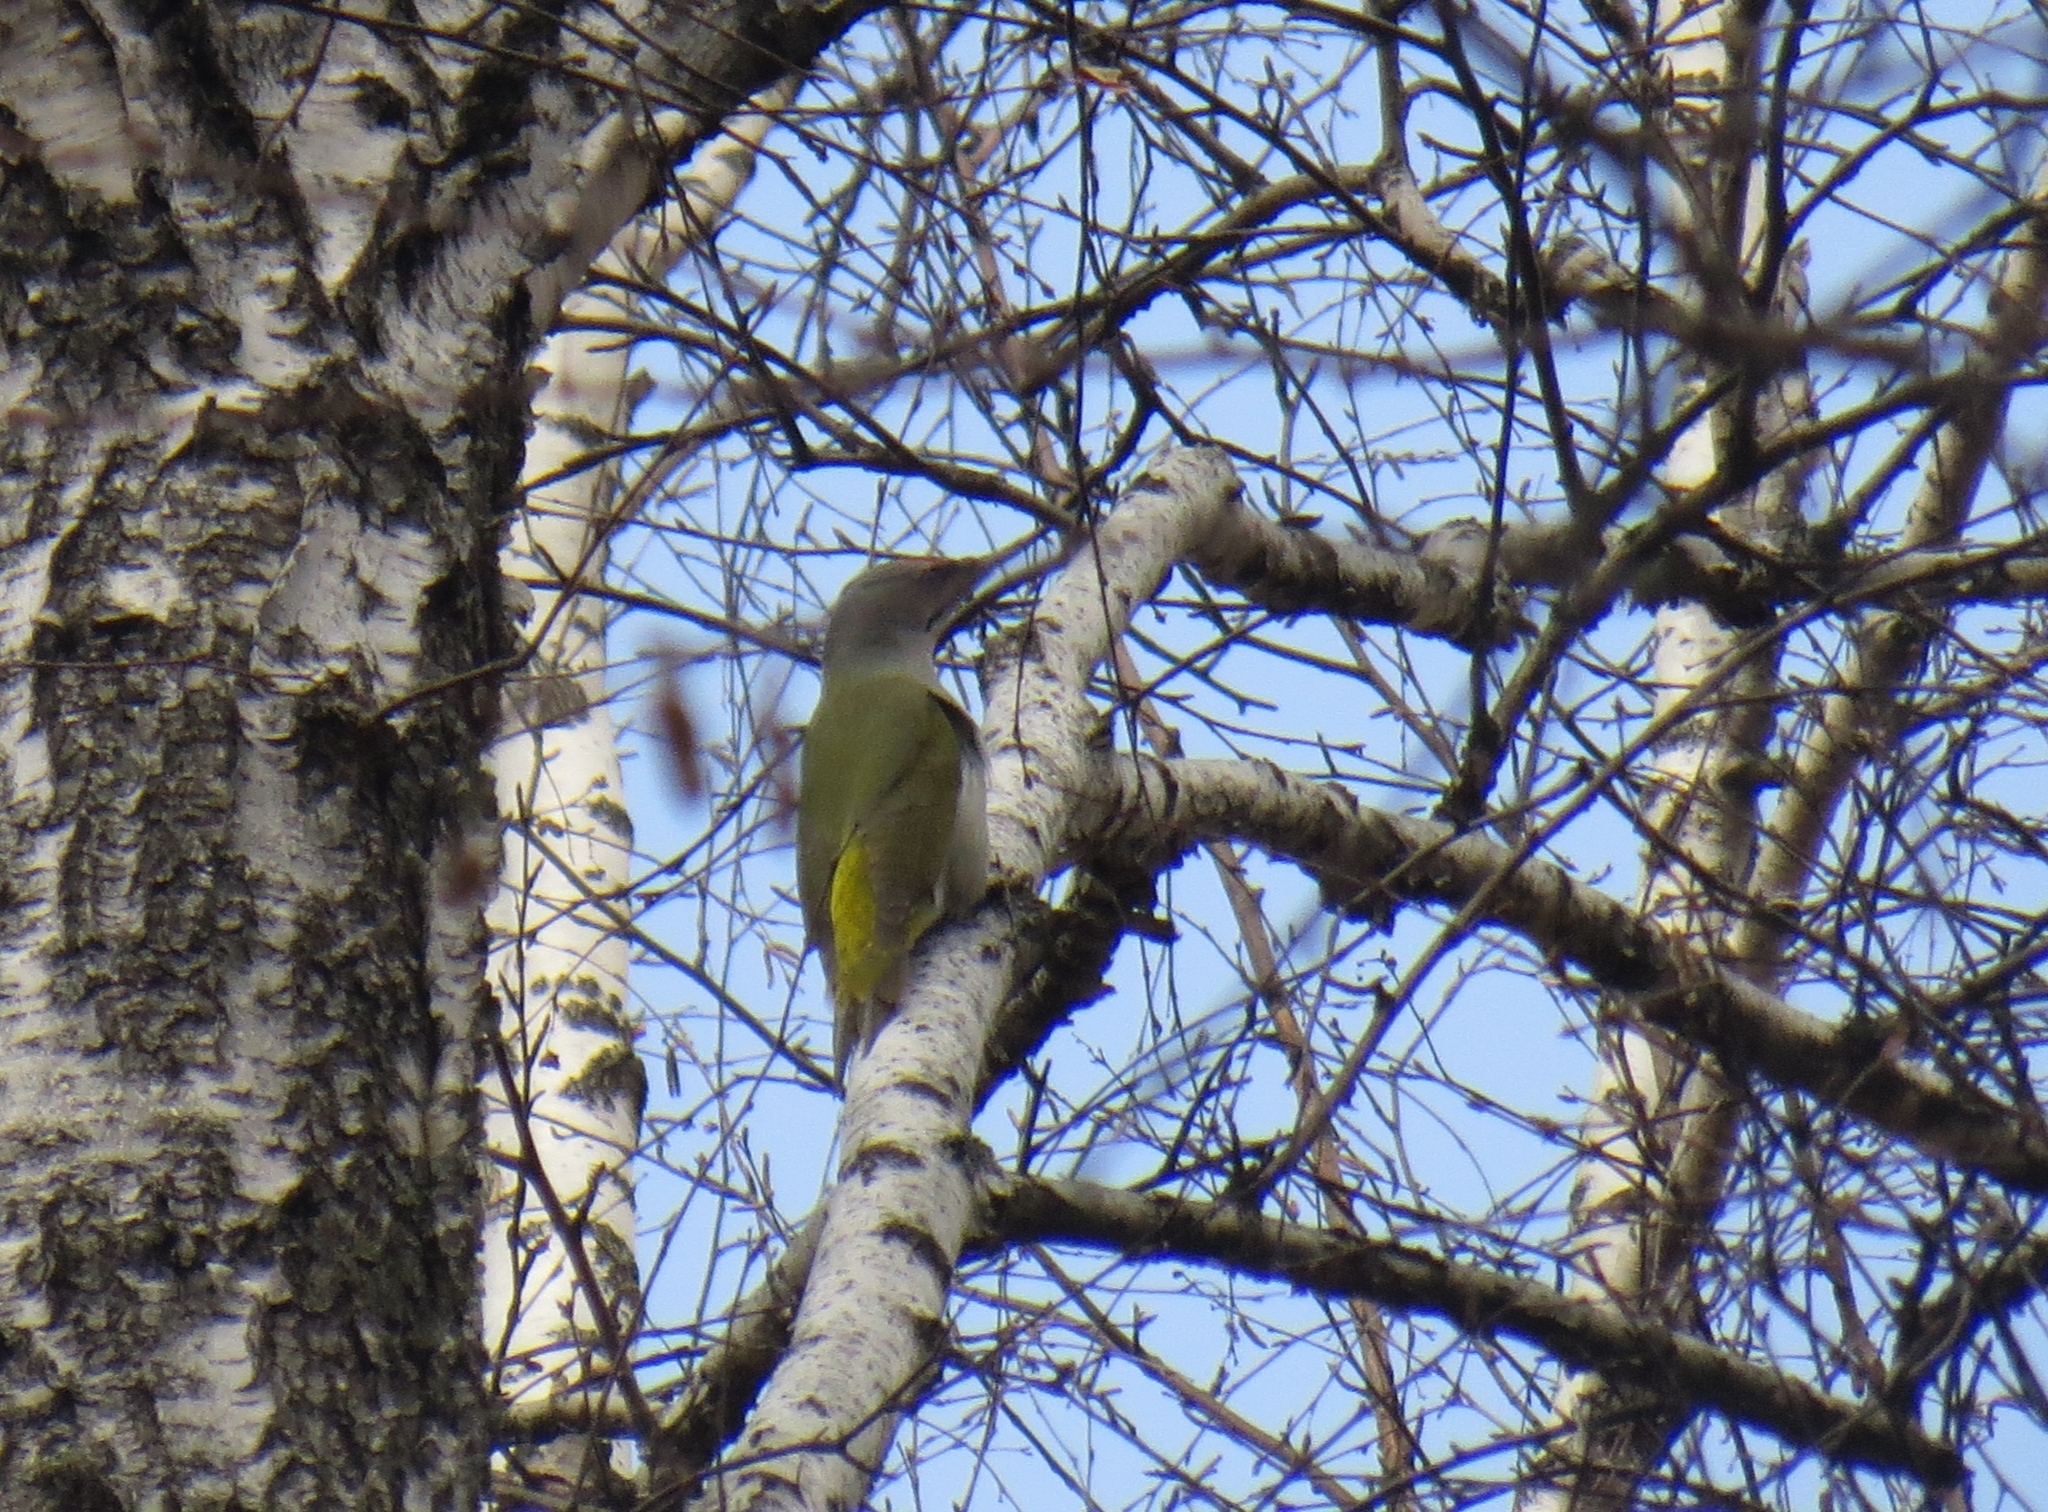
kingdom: Animalia
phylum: Chordata
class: Aves
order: Piciformes
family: Picidae
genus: Picus
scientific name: Picus canus
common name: Grey-headed woodpecker
